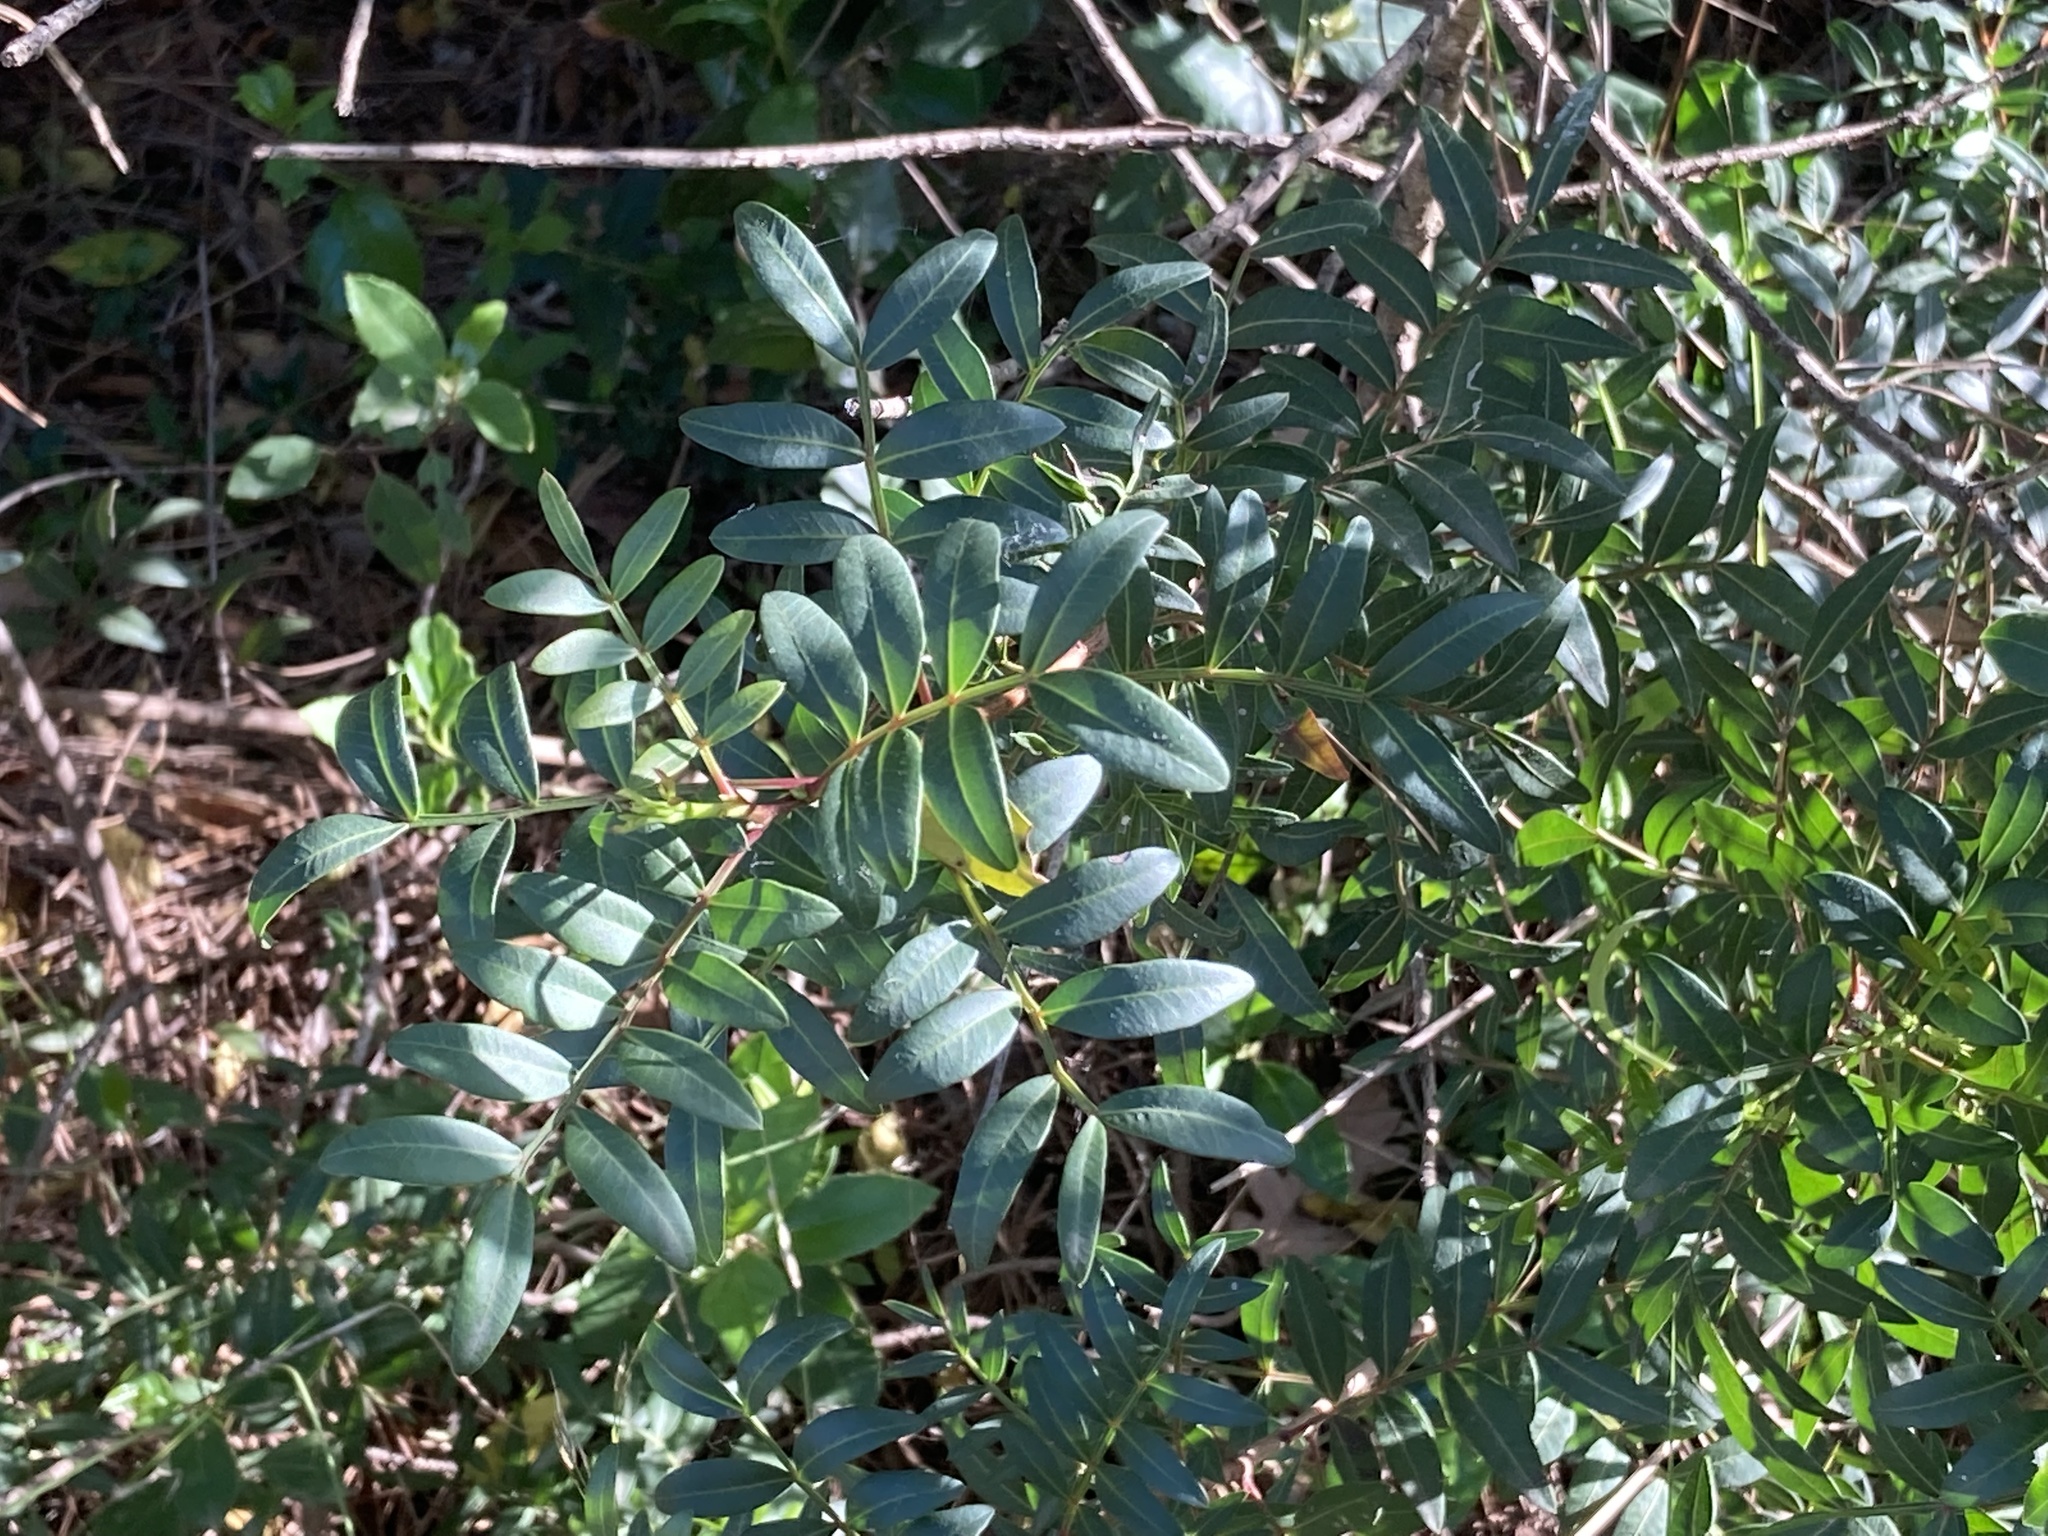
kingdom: Plantae
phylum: Tracheophyta
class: Magnoliopsida
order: Sapindales
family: Anacardiaceae
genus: Pistacia
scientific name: Pistacia lentiscus
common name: Lentisk
